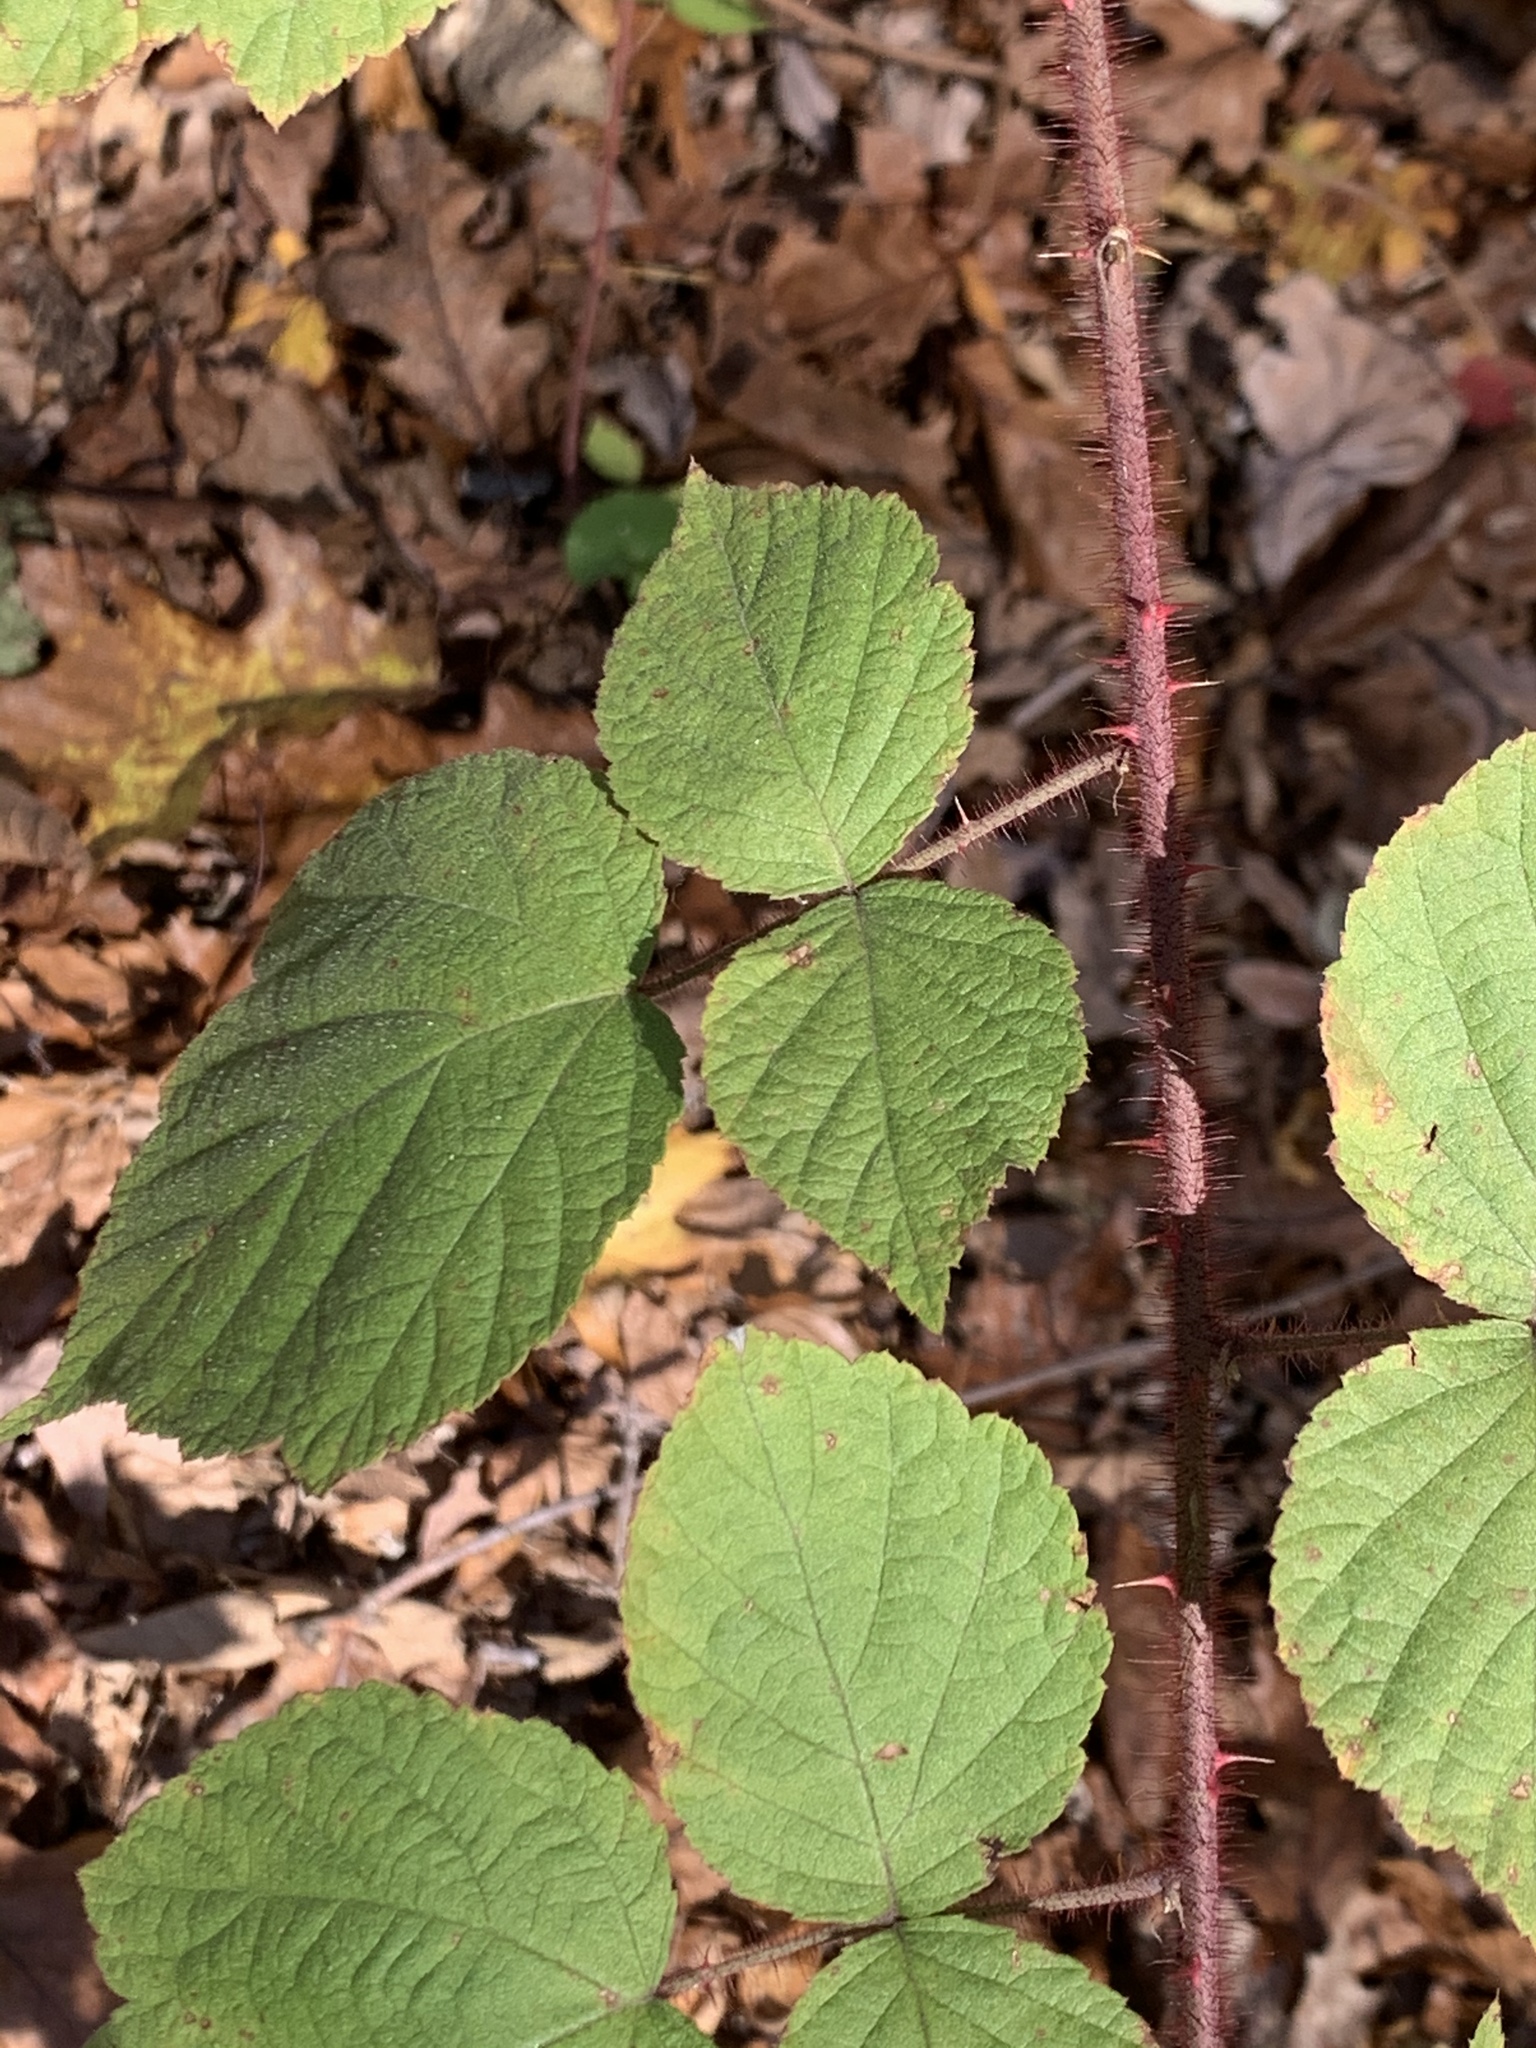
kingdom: Plantae
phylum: Tracheophyta
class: Magnoliopsida
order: Rosales
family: Rosaceae
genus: Rubus
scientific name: Rubus phoenicolasius
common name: Japanese wineberry
